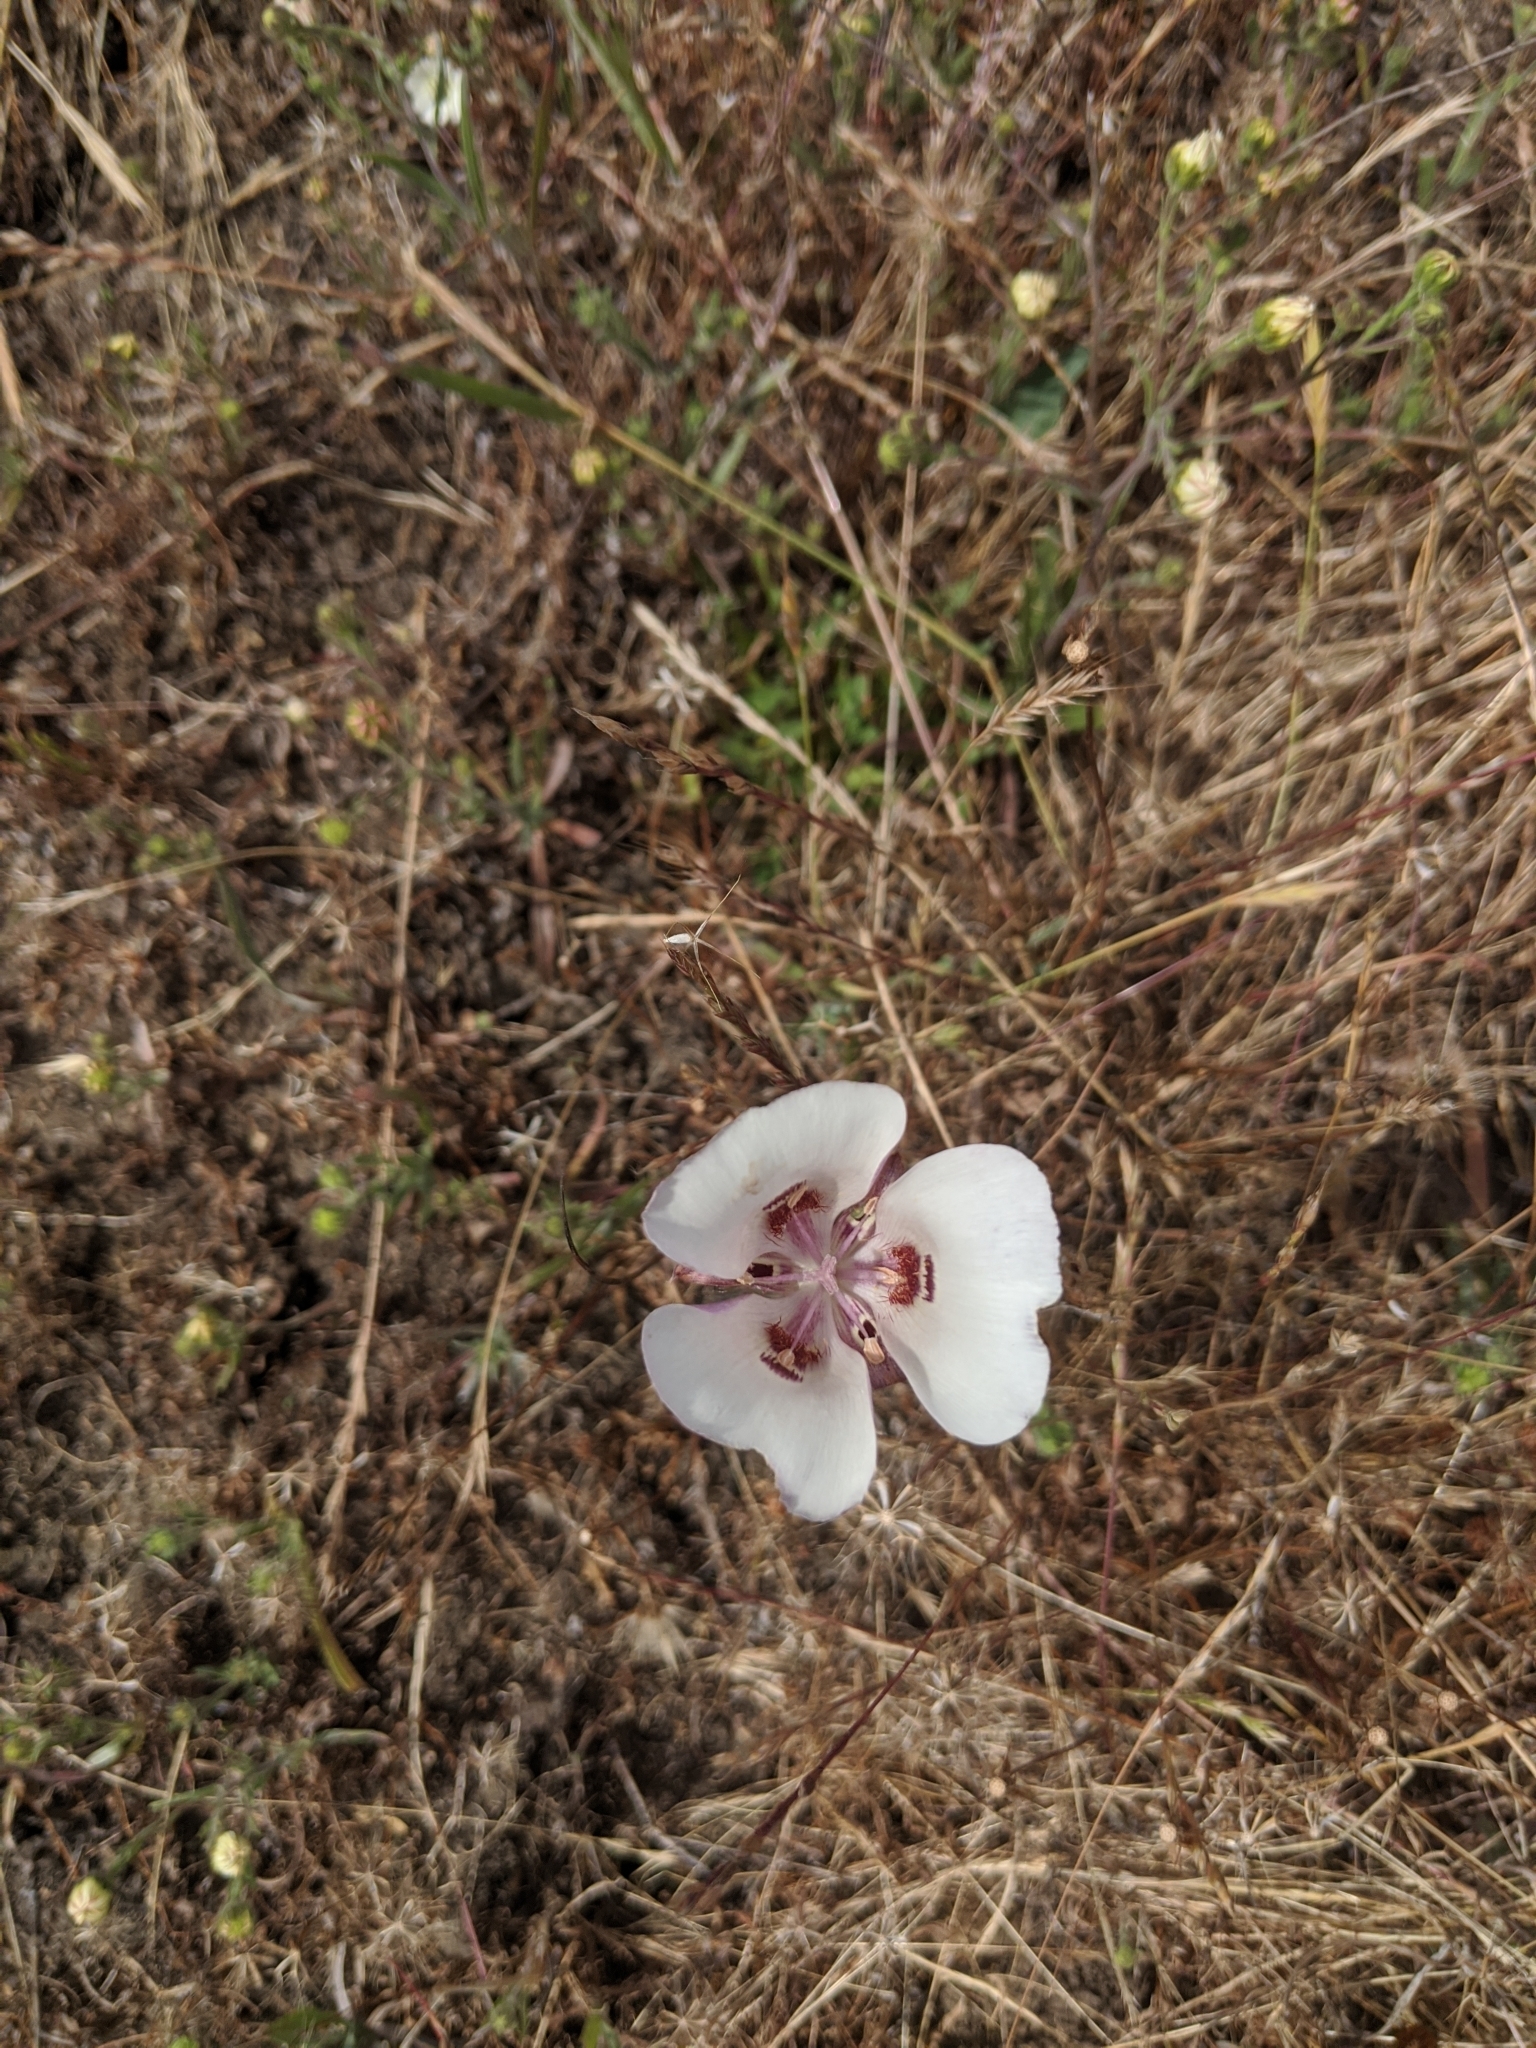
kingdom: Plantae
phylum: Tracheophyta
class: Liliopsida
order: Liliales
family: Liliaceae
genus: Calochortus
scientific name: Calochortus argillosus
